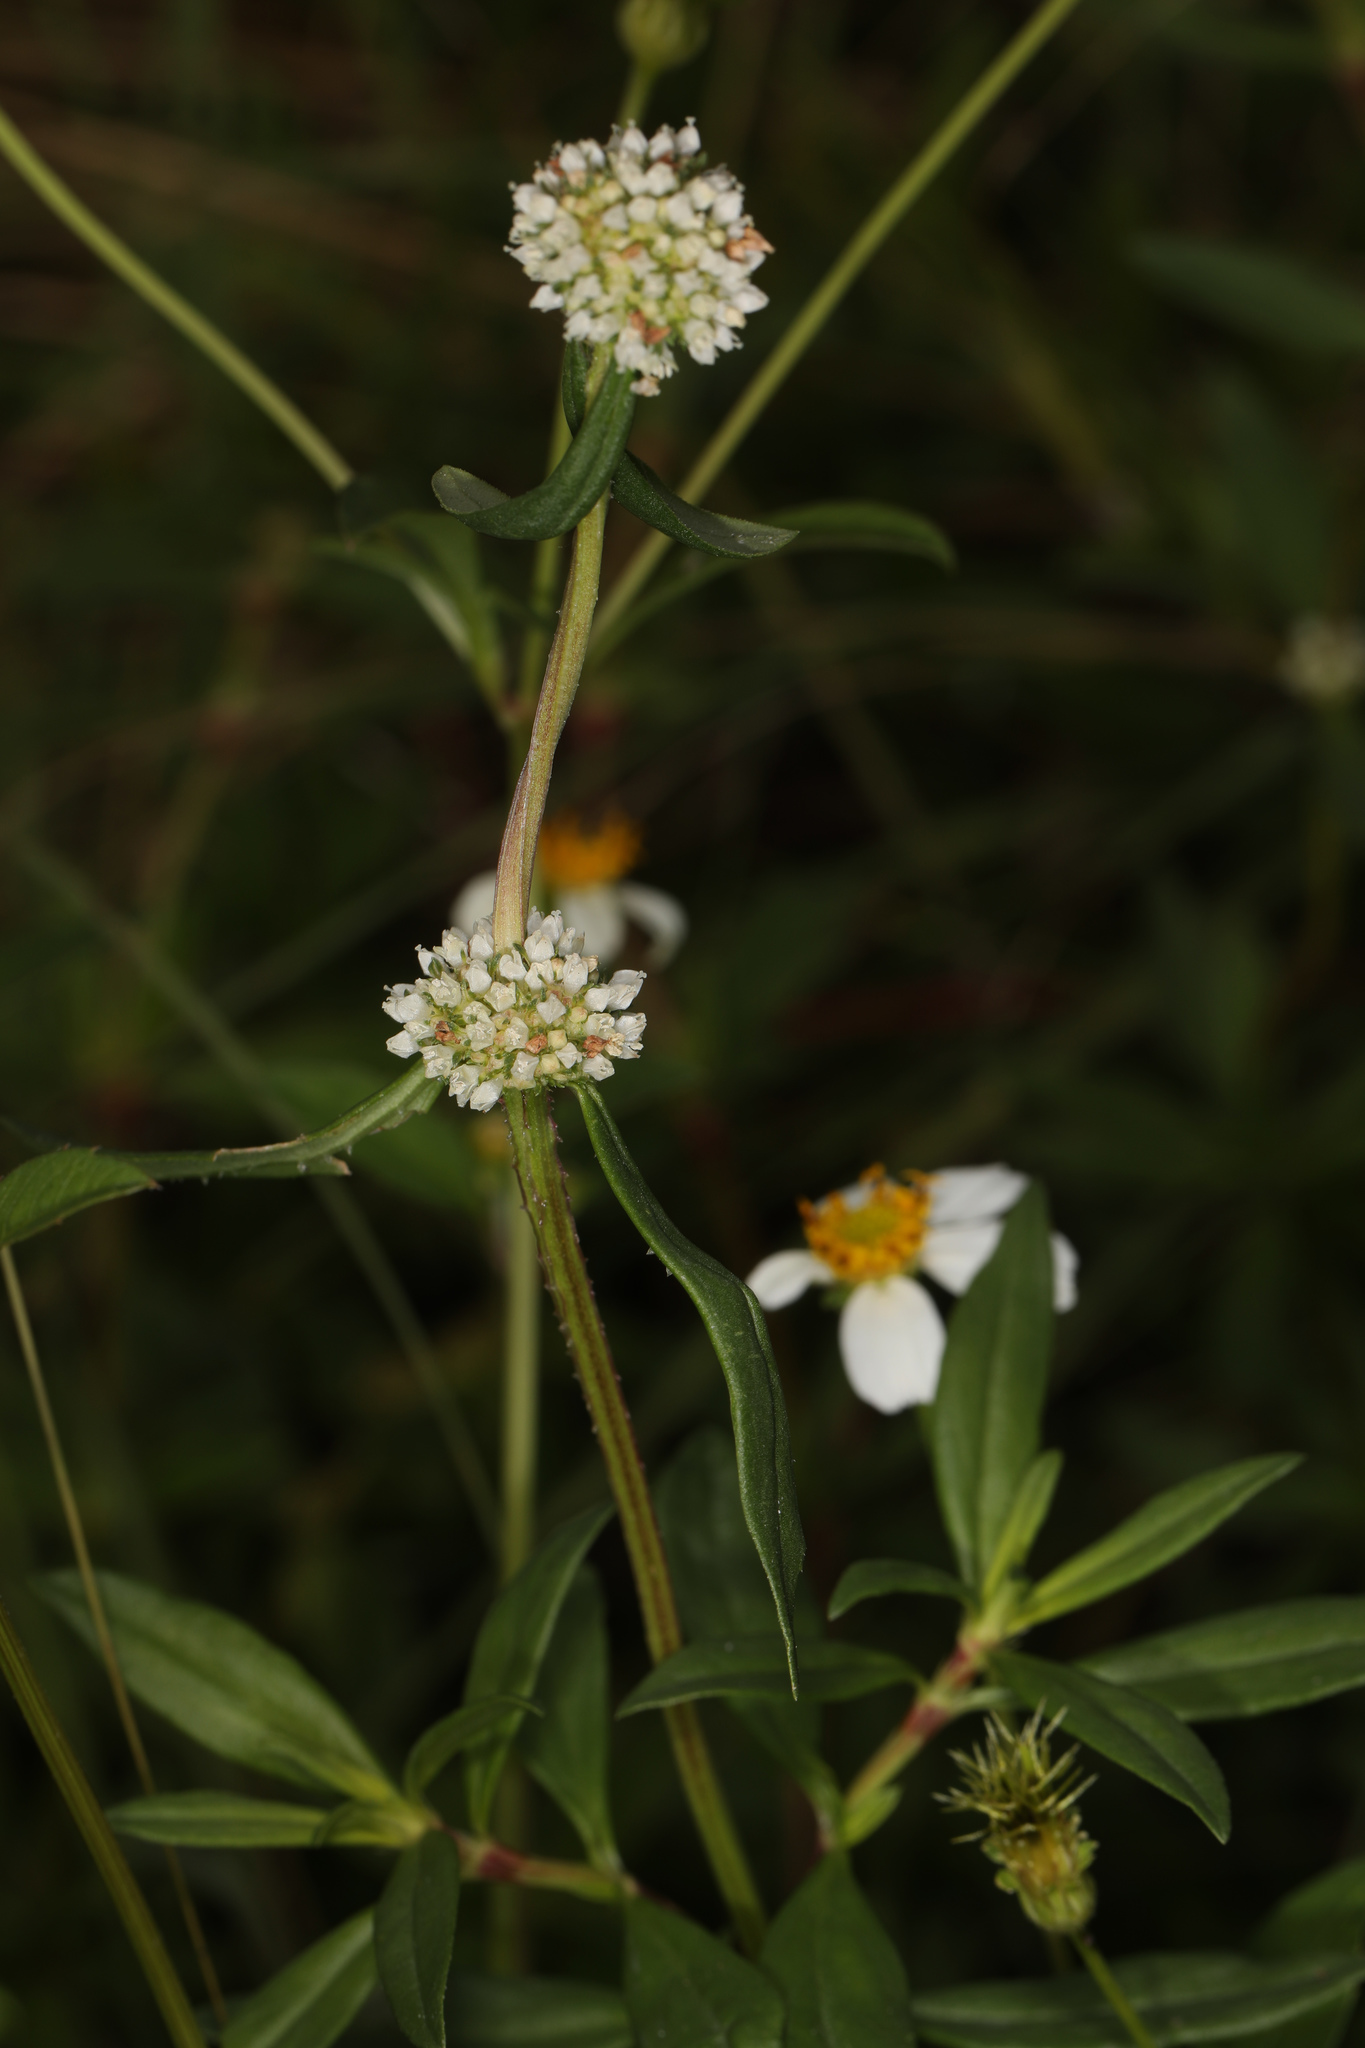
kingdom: Plantae
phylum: Tracheophyta
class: Magnoliopsida
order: Gentianales
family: Rubiaceae
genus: Spermacoce
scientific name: Spermacoce verticillata
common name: Shrubby false buttonweed
